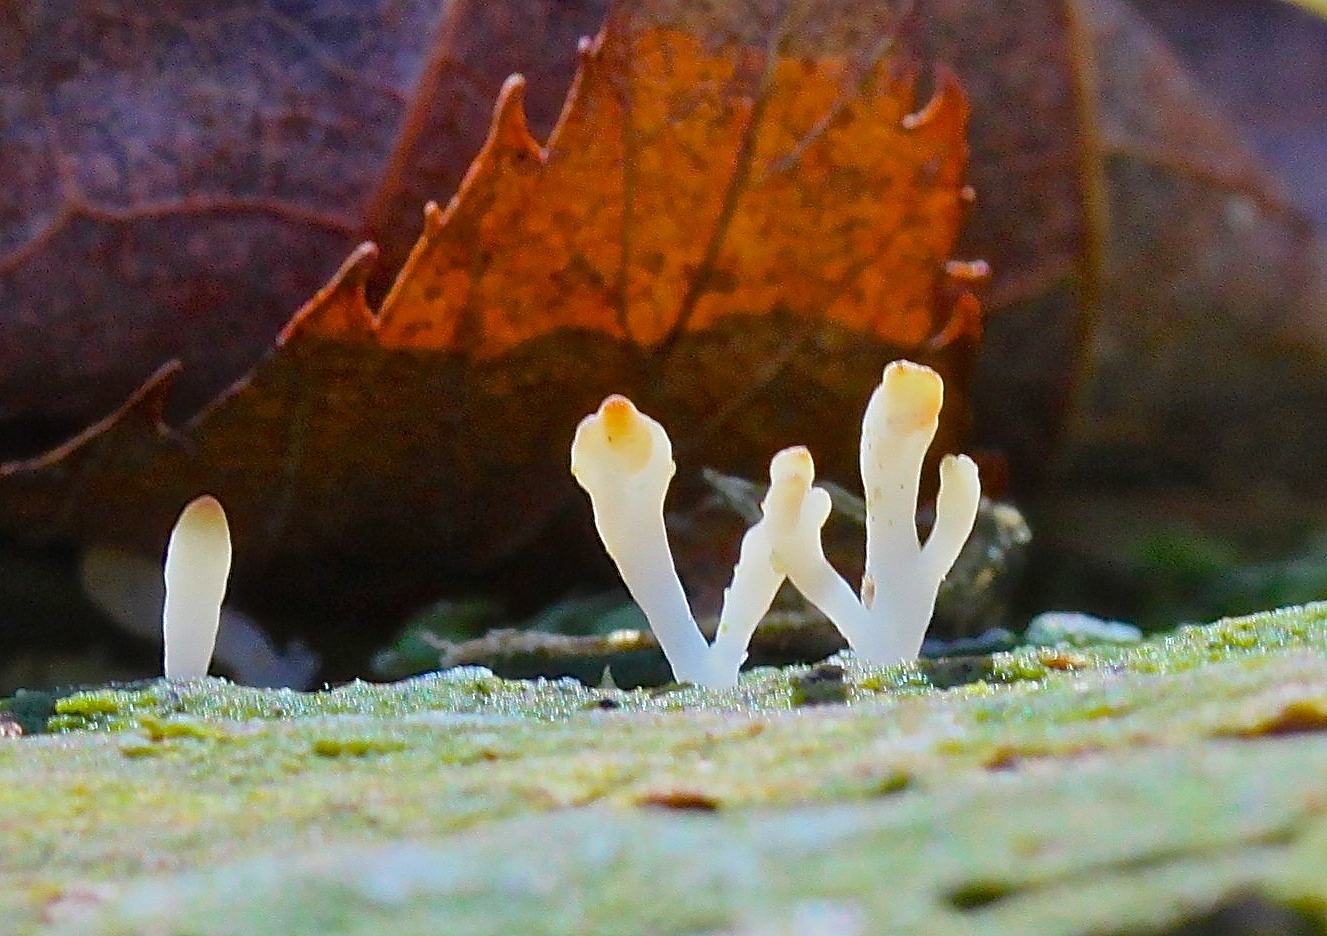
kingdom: Fungi
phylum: Basidiomycota
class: Agaricomycetes
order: Cantharellales
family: Hydnaceae
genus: Multiclavula
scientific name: Multiclavula mucida
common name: White green-algae coral
